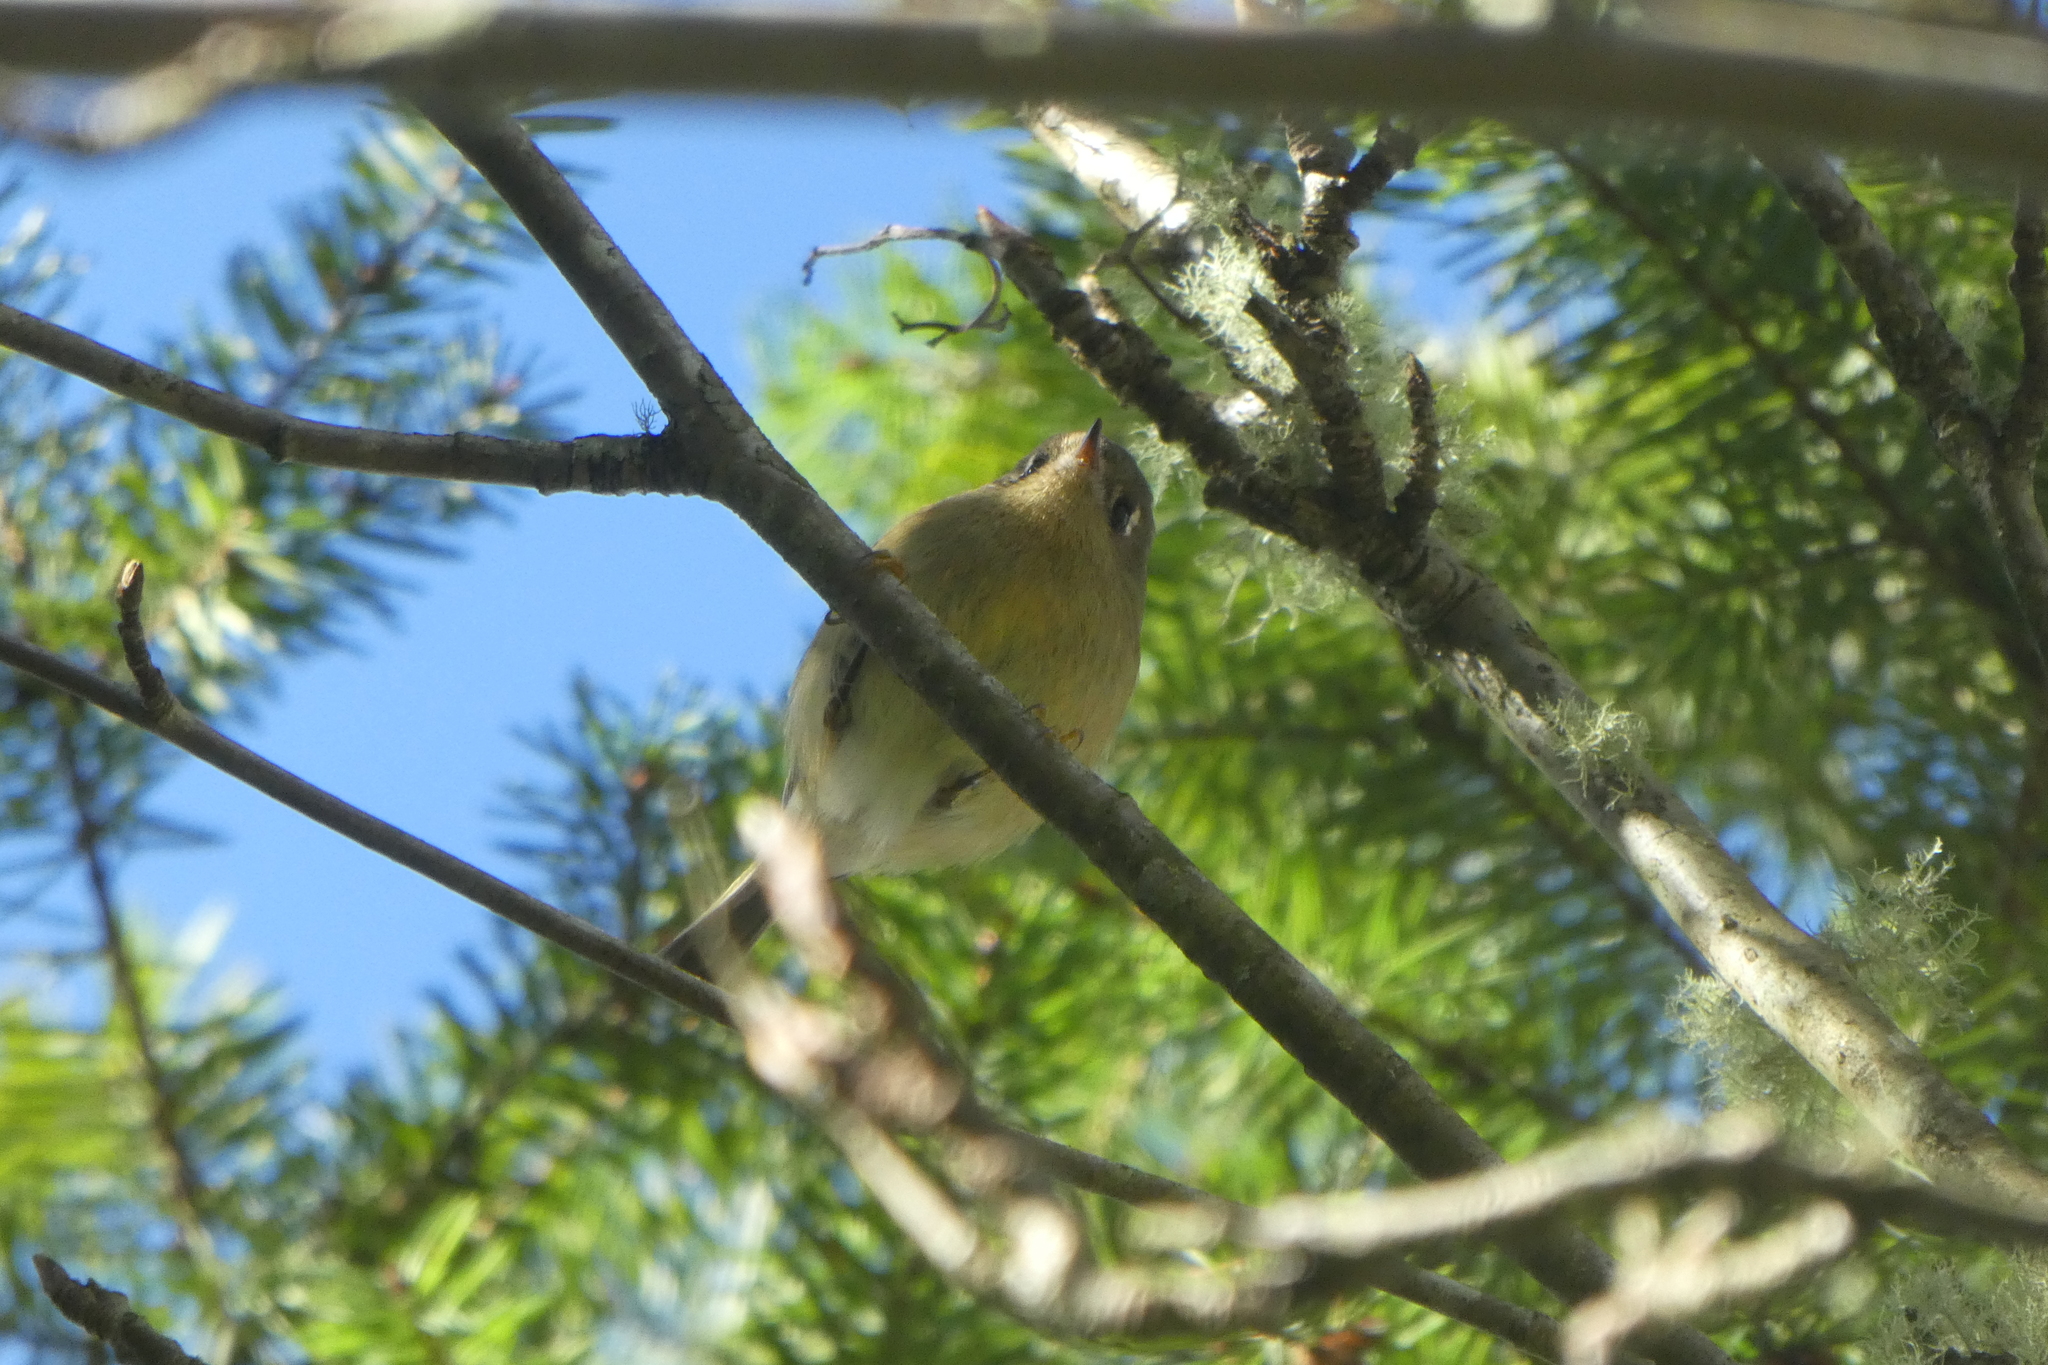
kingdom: Animalia
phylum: Chordata
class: Aves
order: Passeriformes
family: Regulidae
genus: Regulus
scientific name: Regulus calendula
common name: Ruby-crowned kinglet
